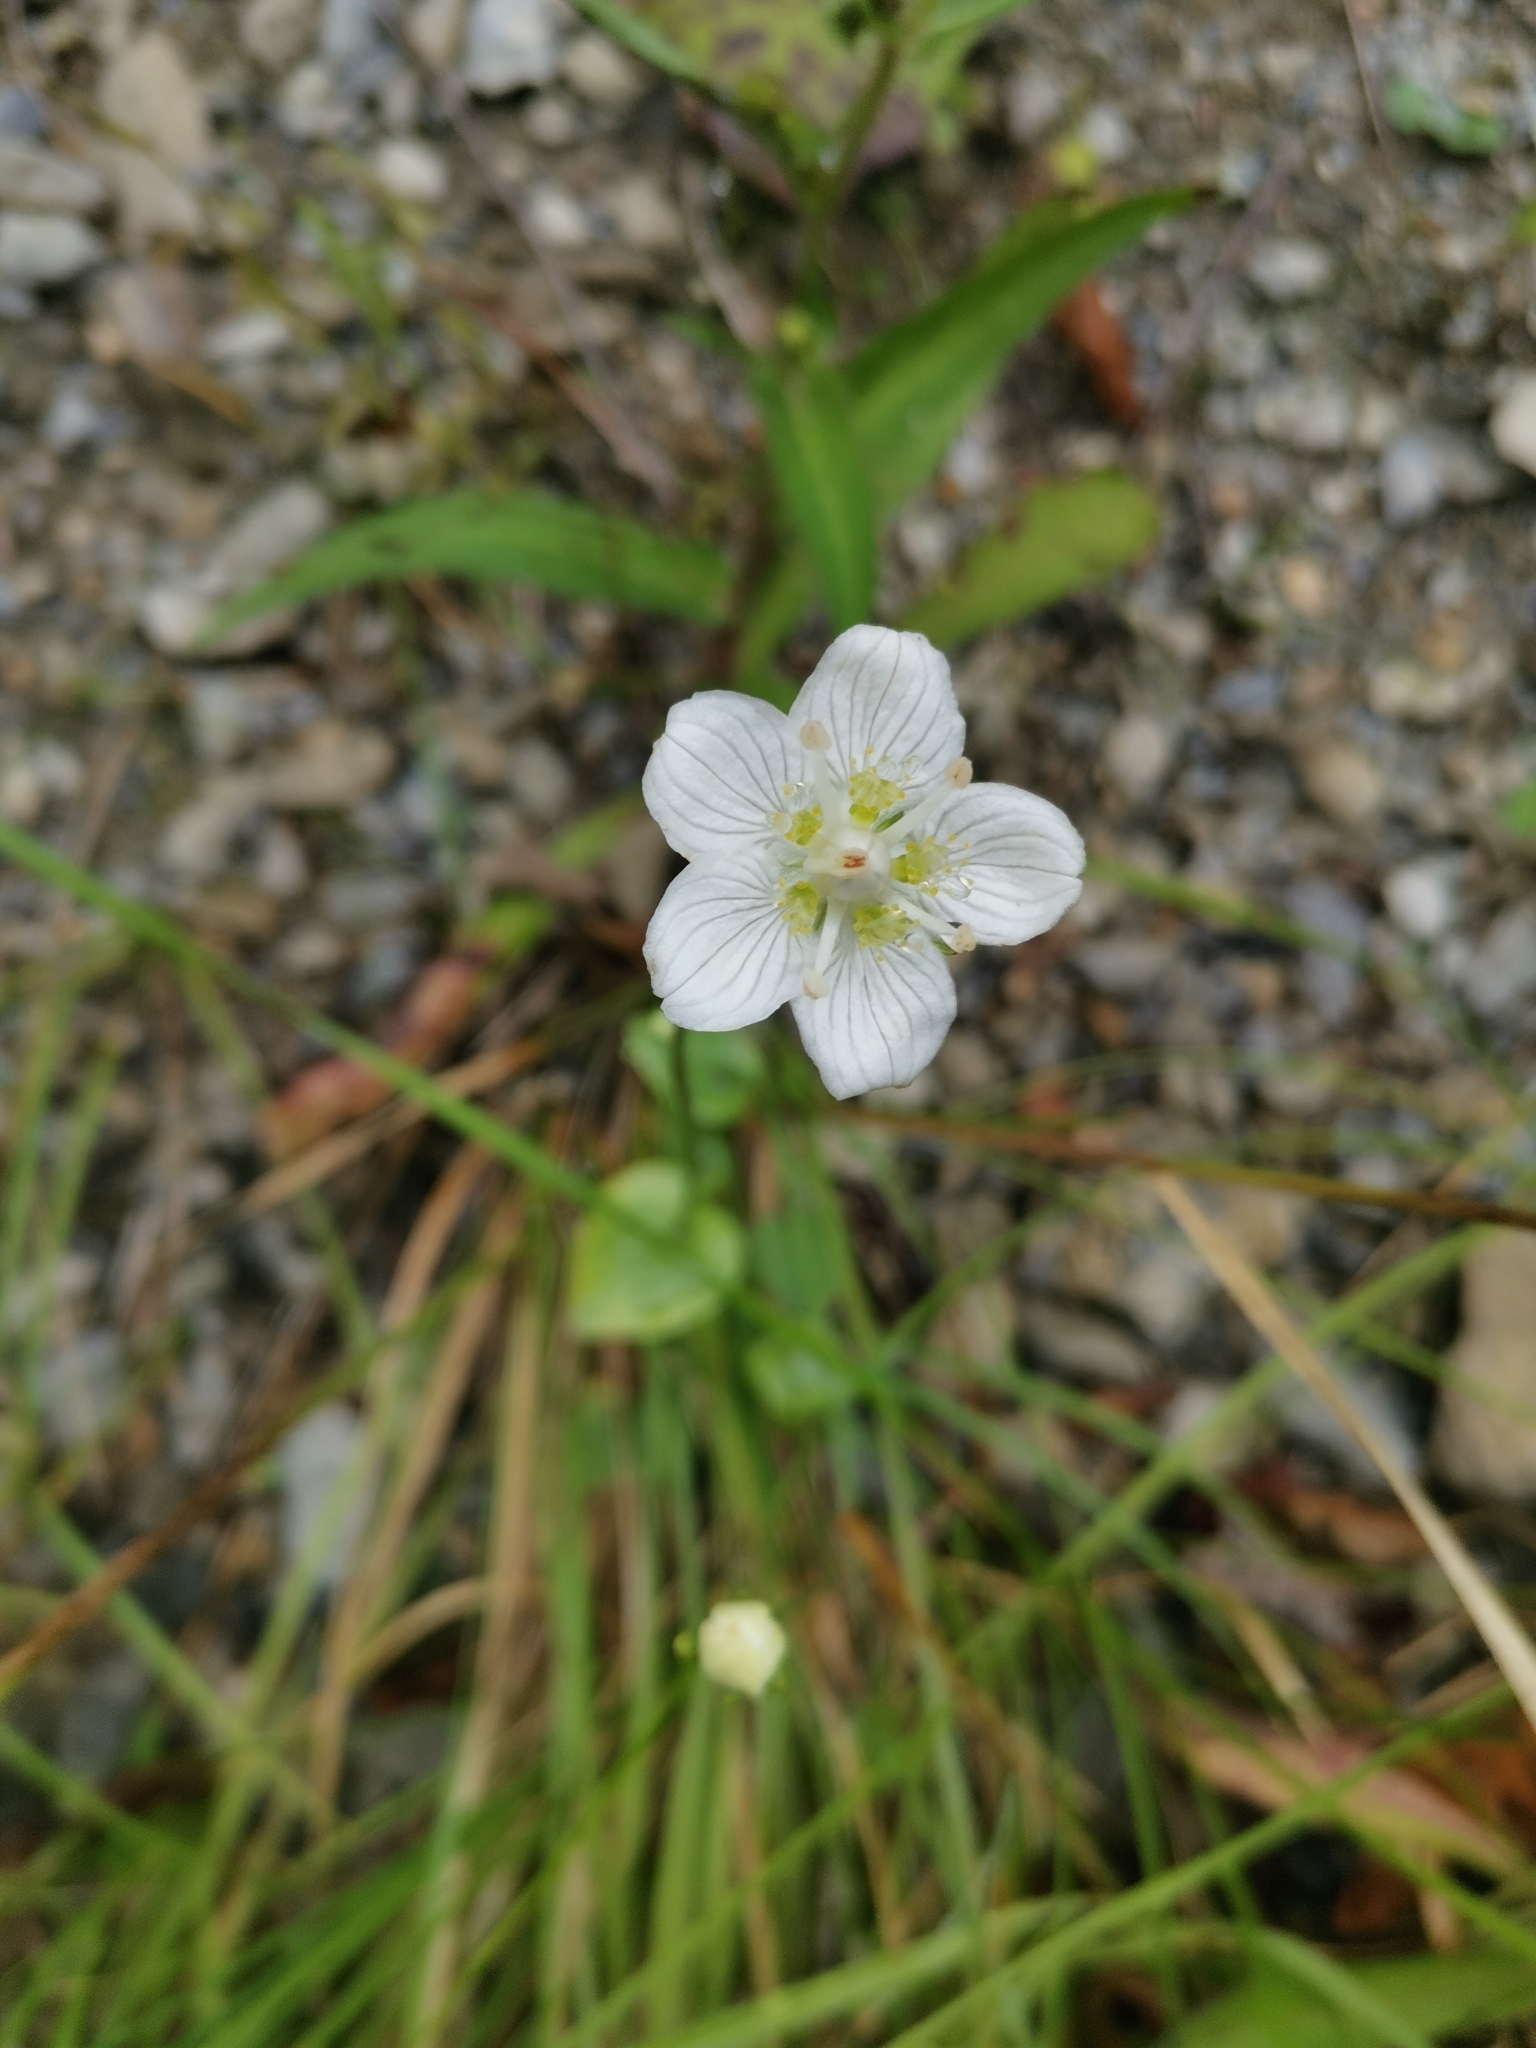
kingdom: Plantae
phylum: Tracheophyta
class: Magnoliopsida
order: Celastrales
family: Parnassiaceae
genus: Parnassia
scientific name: Parnassia palustris
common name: Grass-of-parnassus
